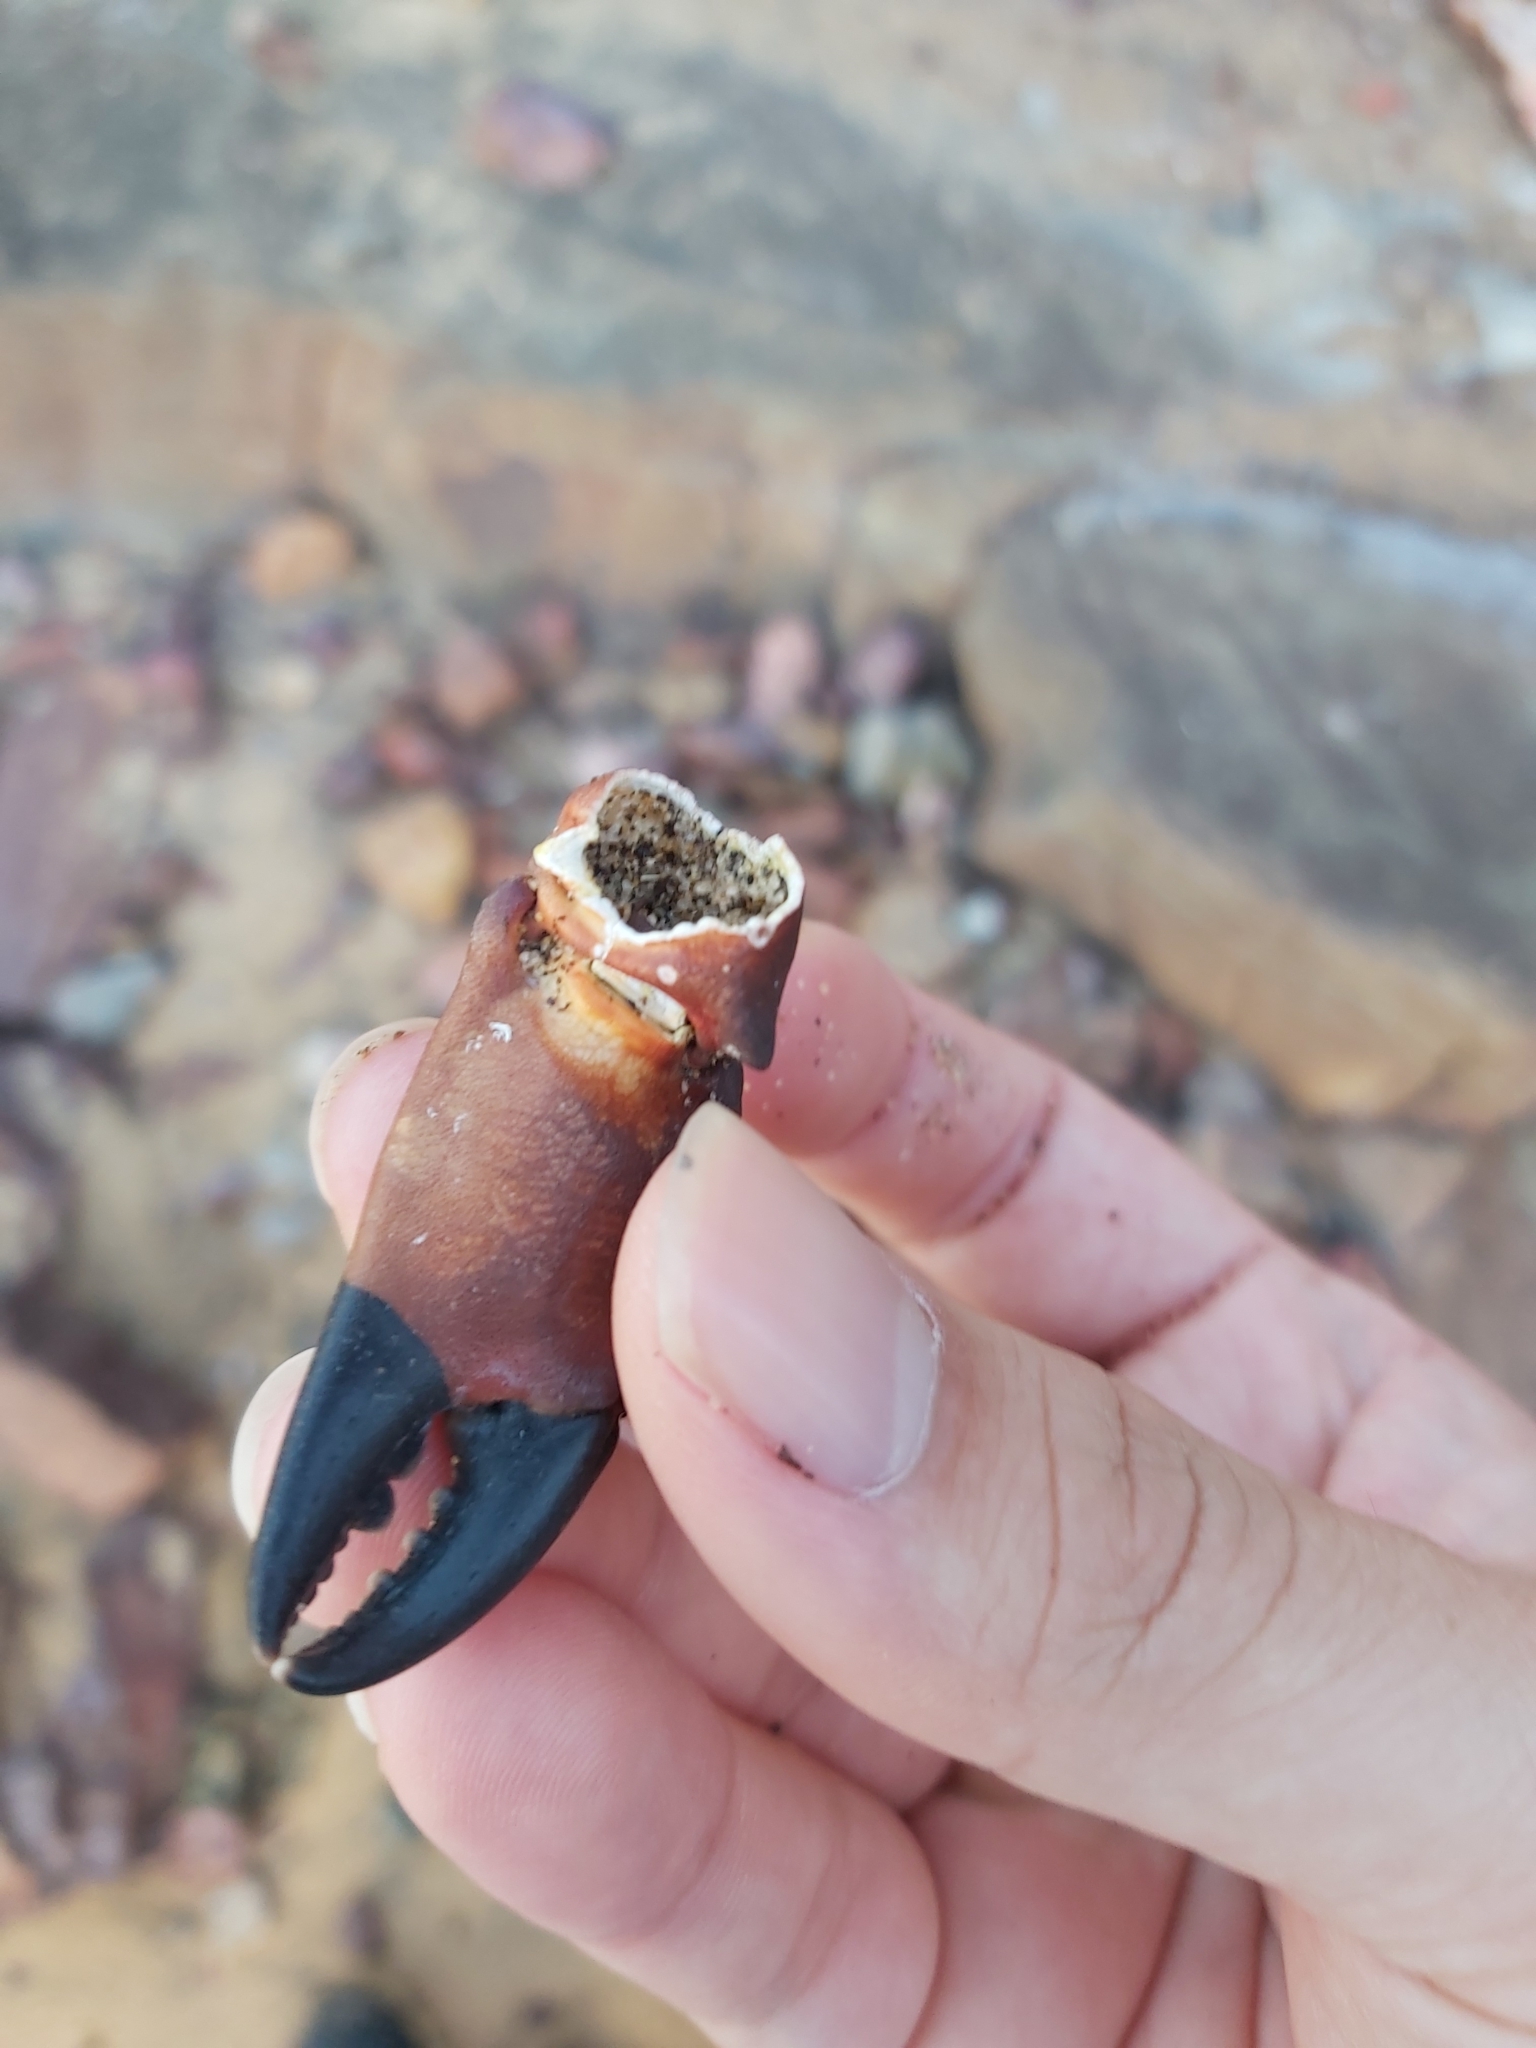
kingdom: Animalia
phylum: Arthropoda
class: Malacostraca
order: Decapoda
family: Oziidae
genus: Ozius
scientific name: Ozius truncatus
